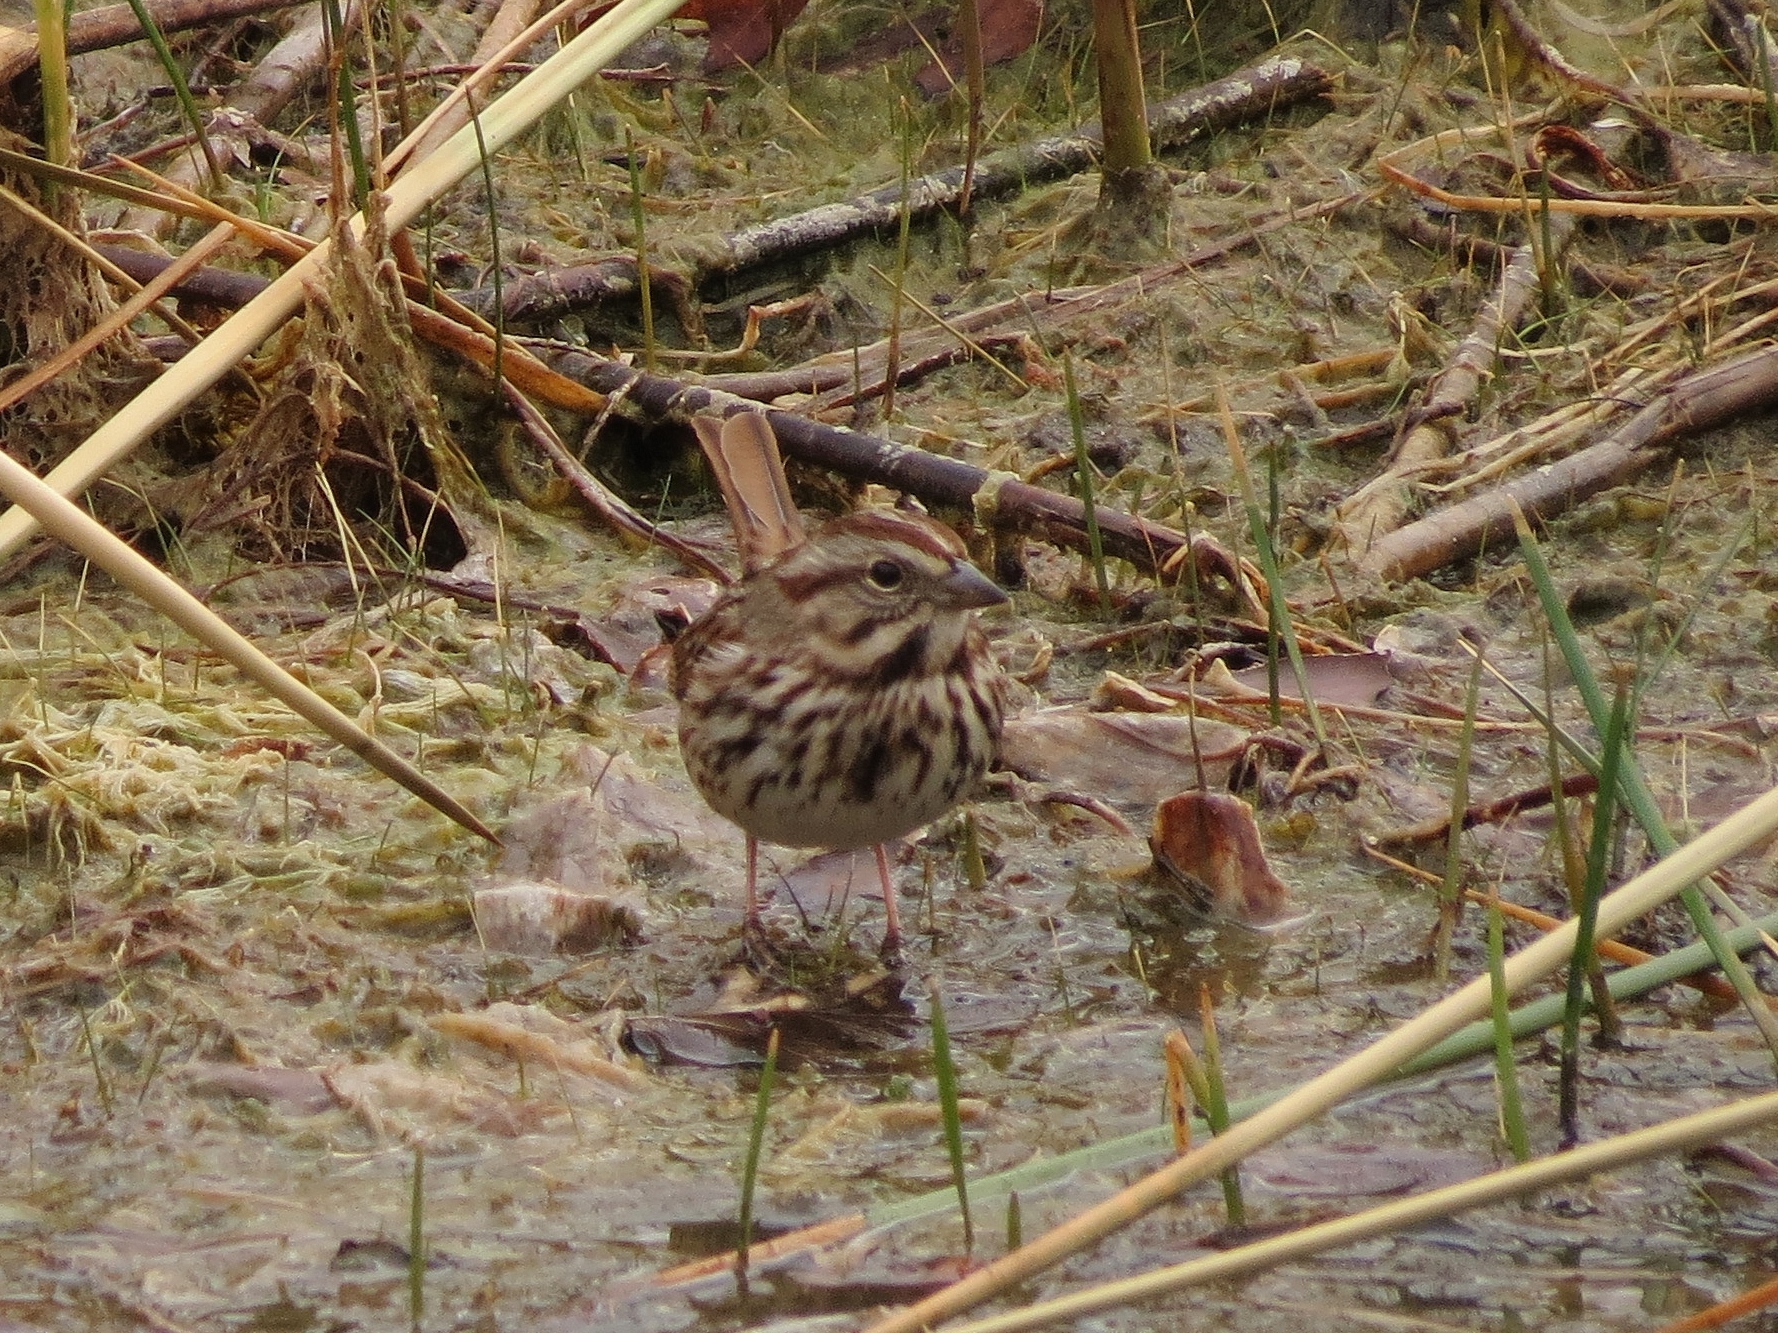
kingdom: Animalia
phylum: Chordata
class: Aves
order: Passeriformes
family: Passerellidae
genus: Melospiza
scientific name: Melospiza melodia
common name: Song sparrow
